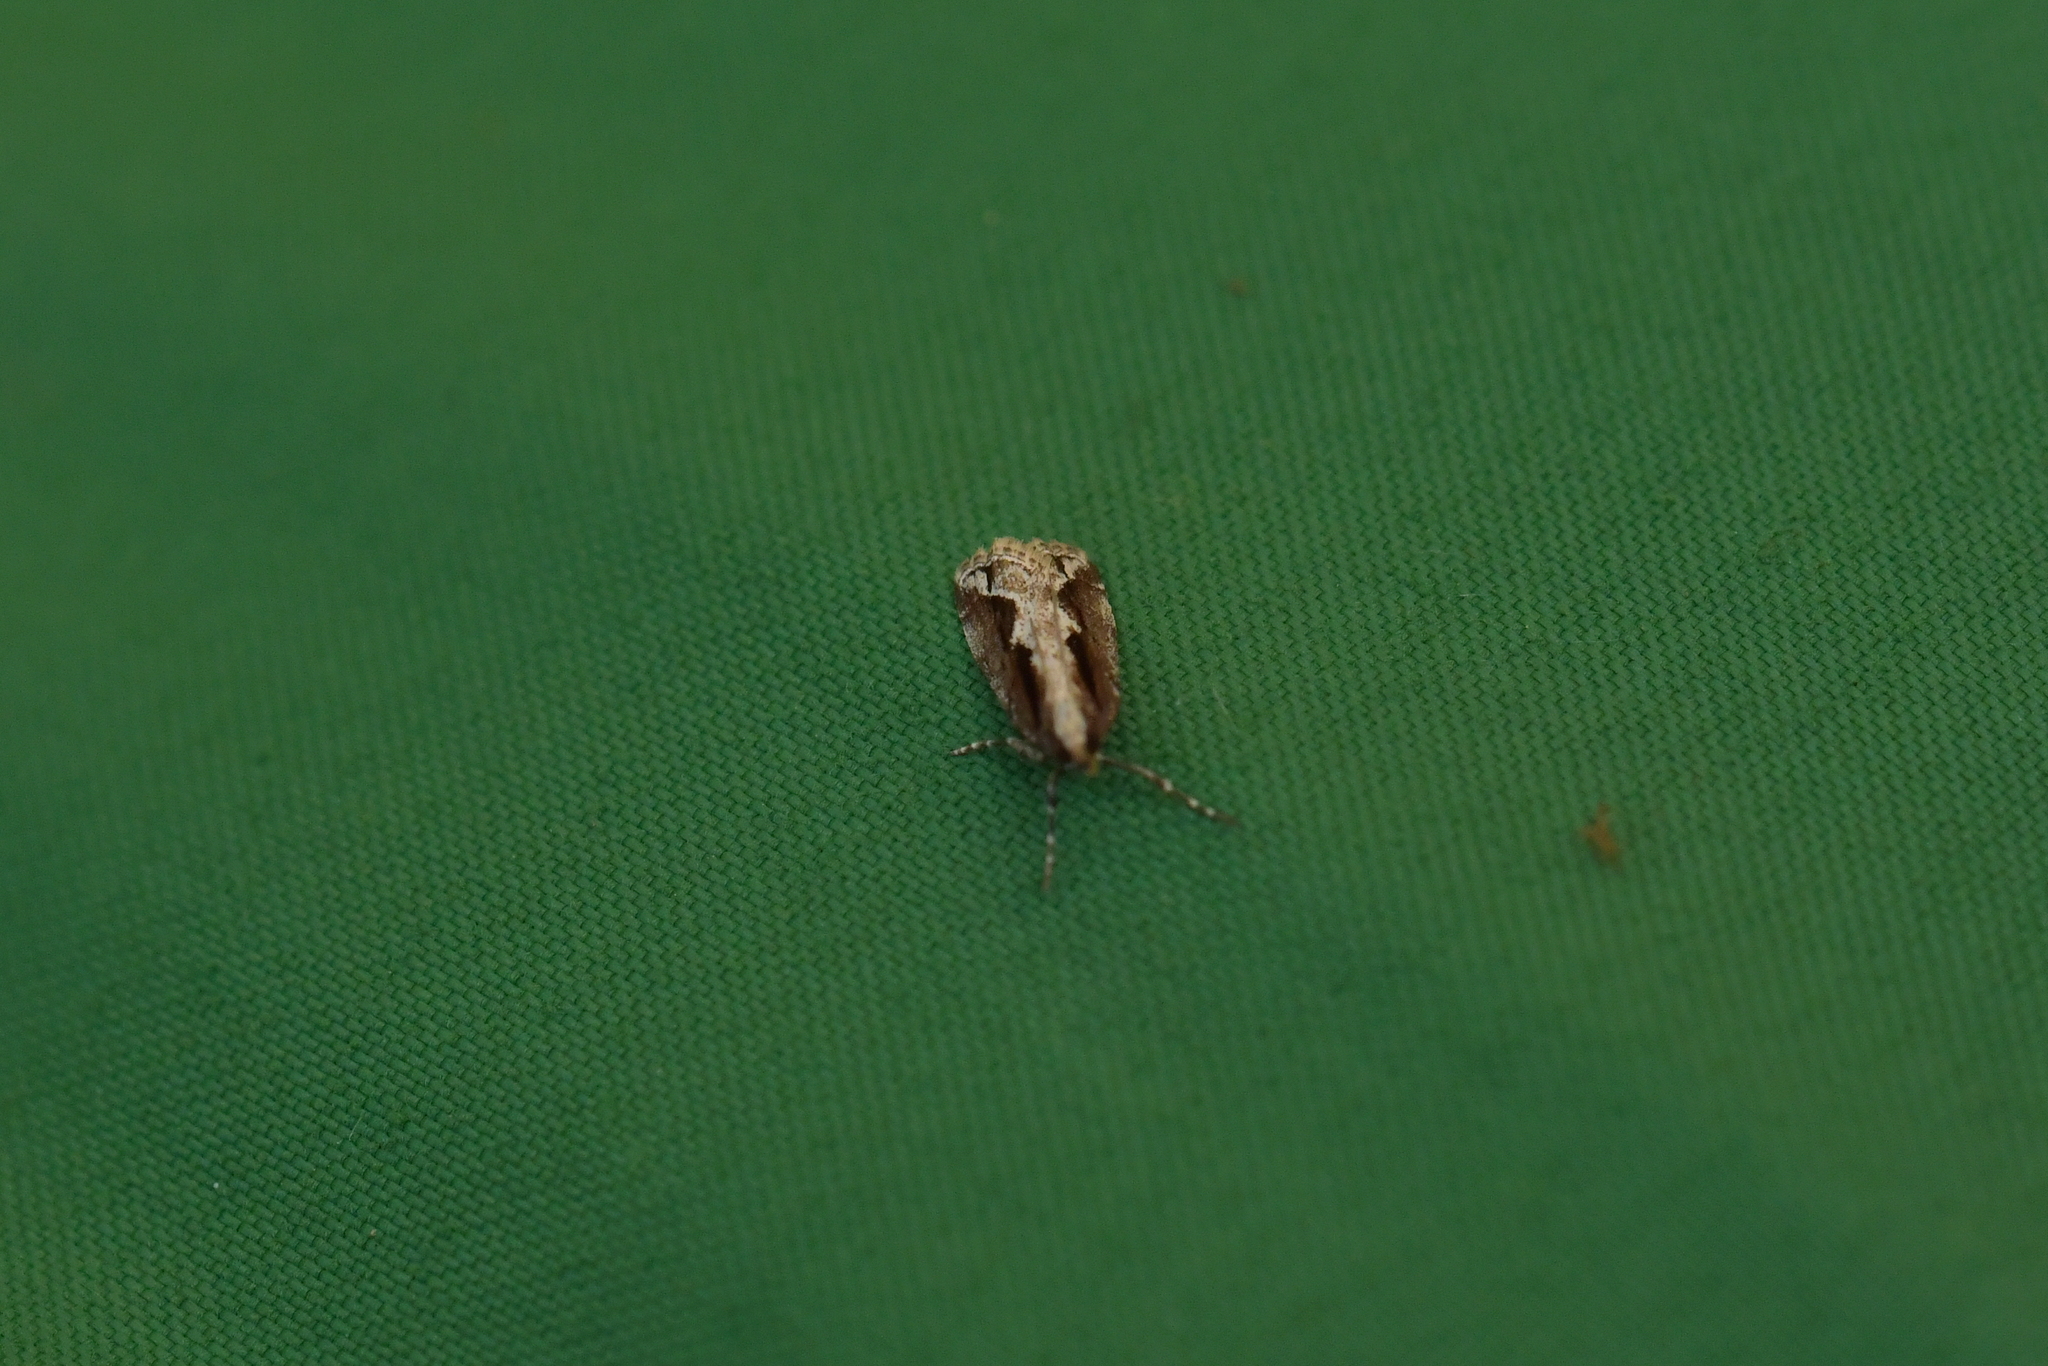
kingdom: Animalia
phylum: Arthropoda
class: Insecta
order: Lepidoptera
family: Crambidae
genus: Eudonia
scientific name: Eudonia steropaea
